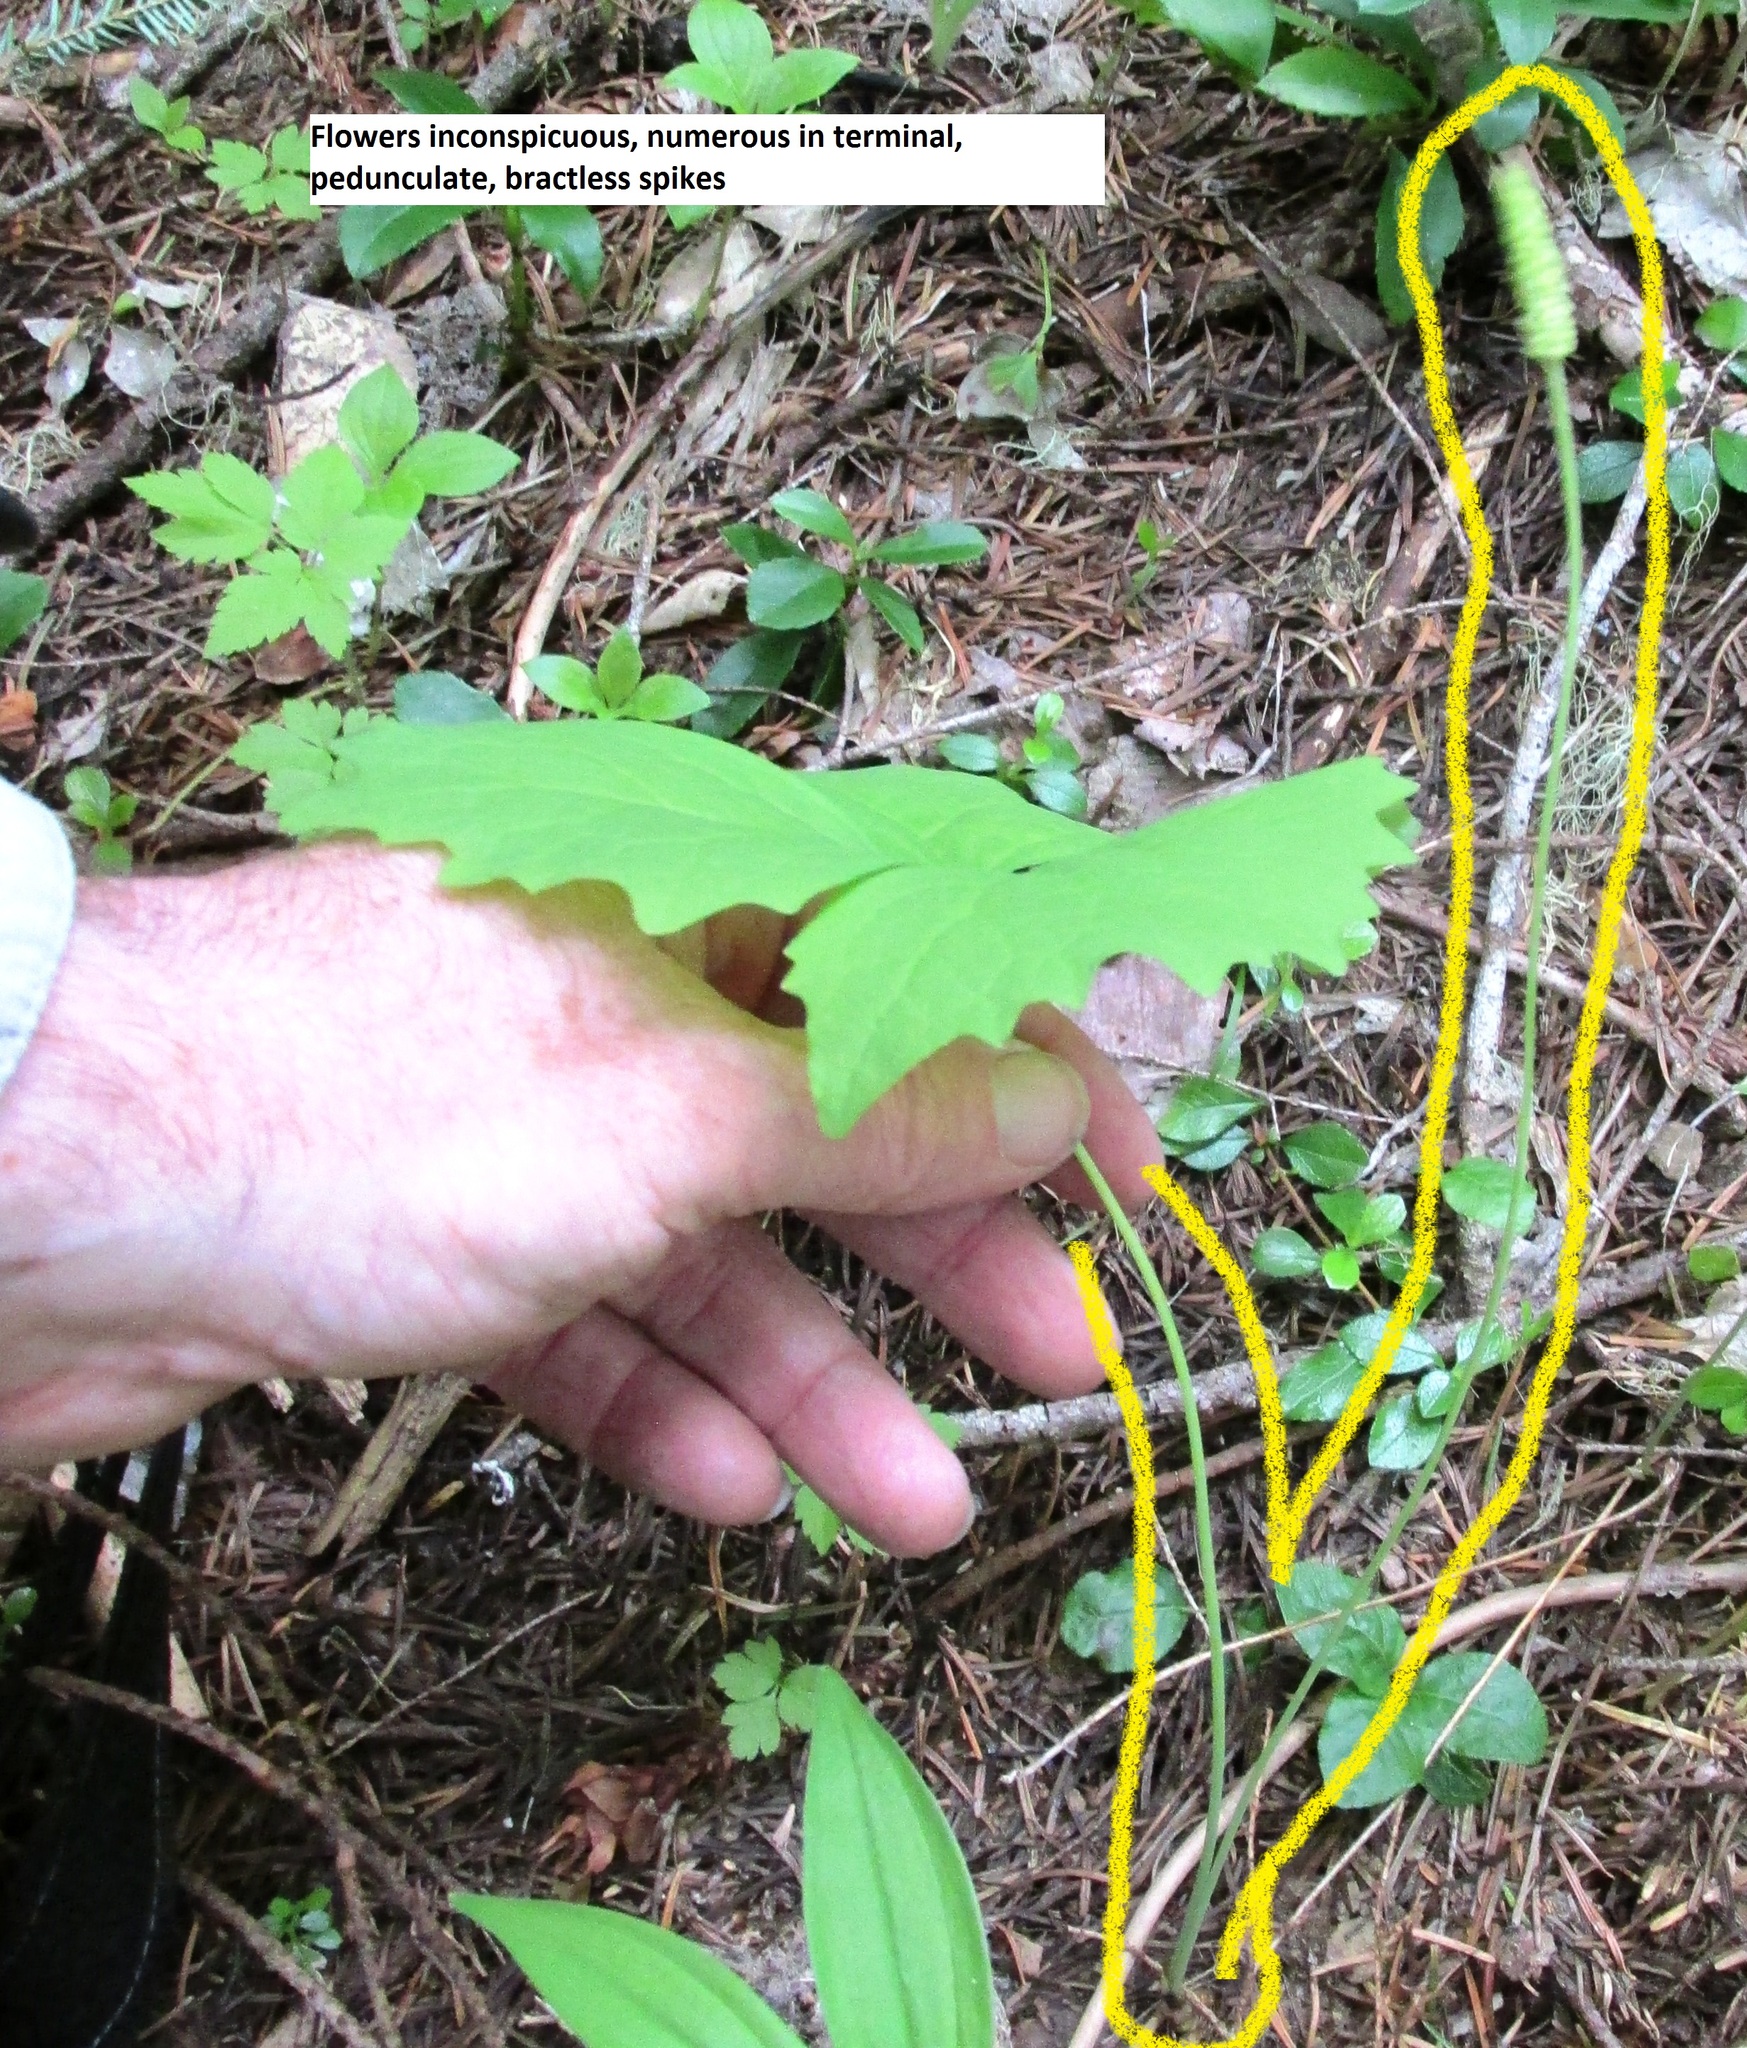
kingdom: Plantae
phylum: Tracheophyta
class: Magnoliopsida
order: Ranunculales
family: Berberidaceae
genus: Achlys
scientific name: Achlys triphylla
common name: Vanilla-leaf
